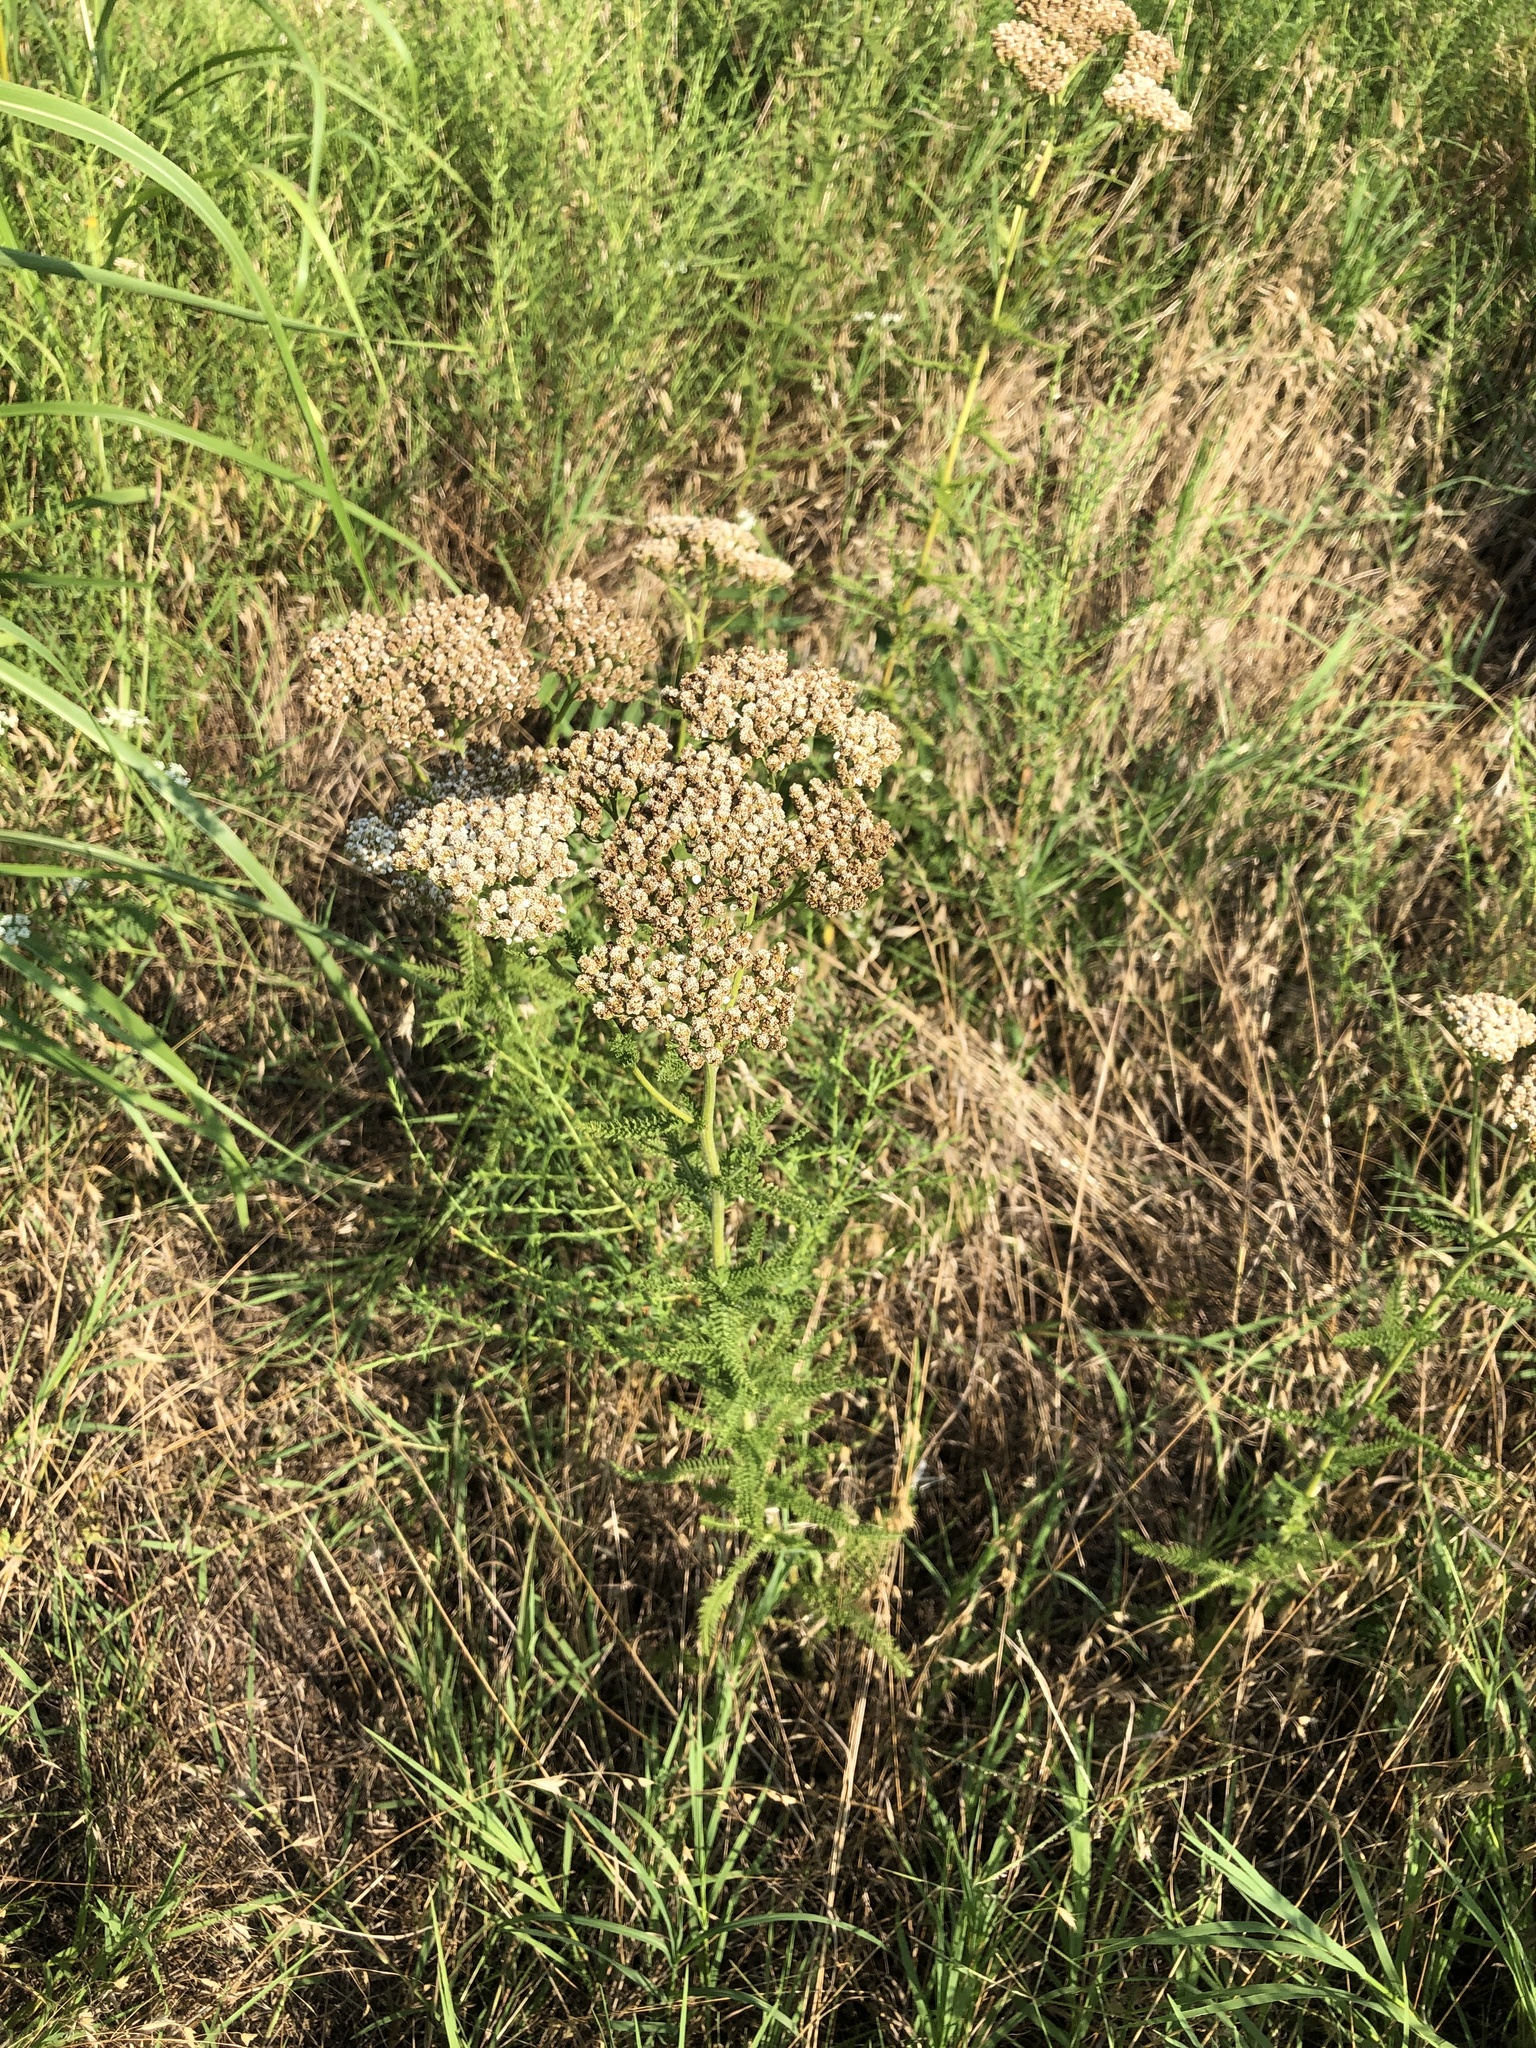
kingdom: Plantae
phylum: Tracheophyta
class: Magnoliopsida
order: Asterales
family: Asteraceae
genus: Achillea
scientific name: Achillea millefolium
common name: Yarrow
